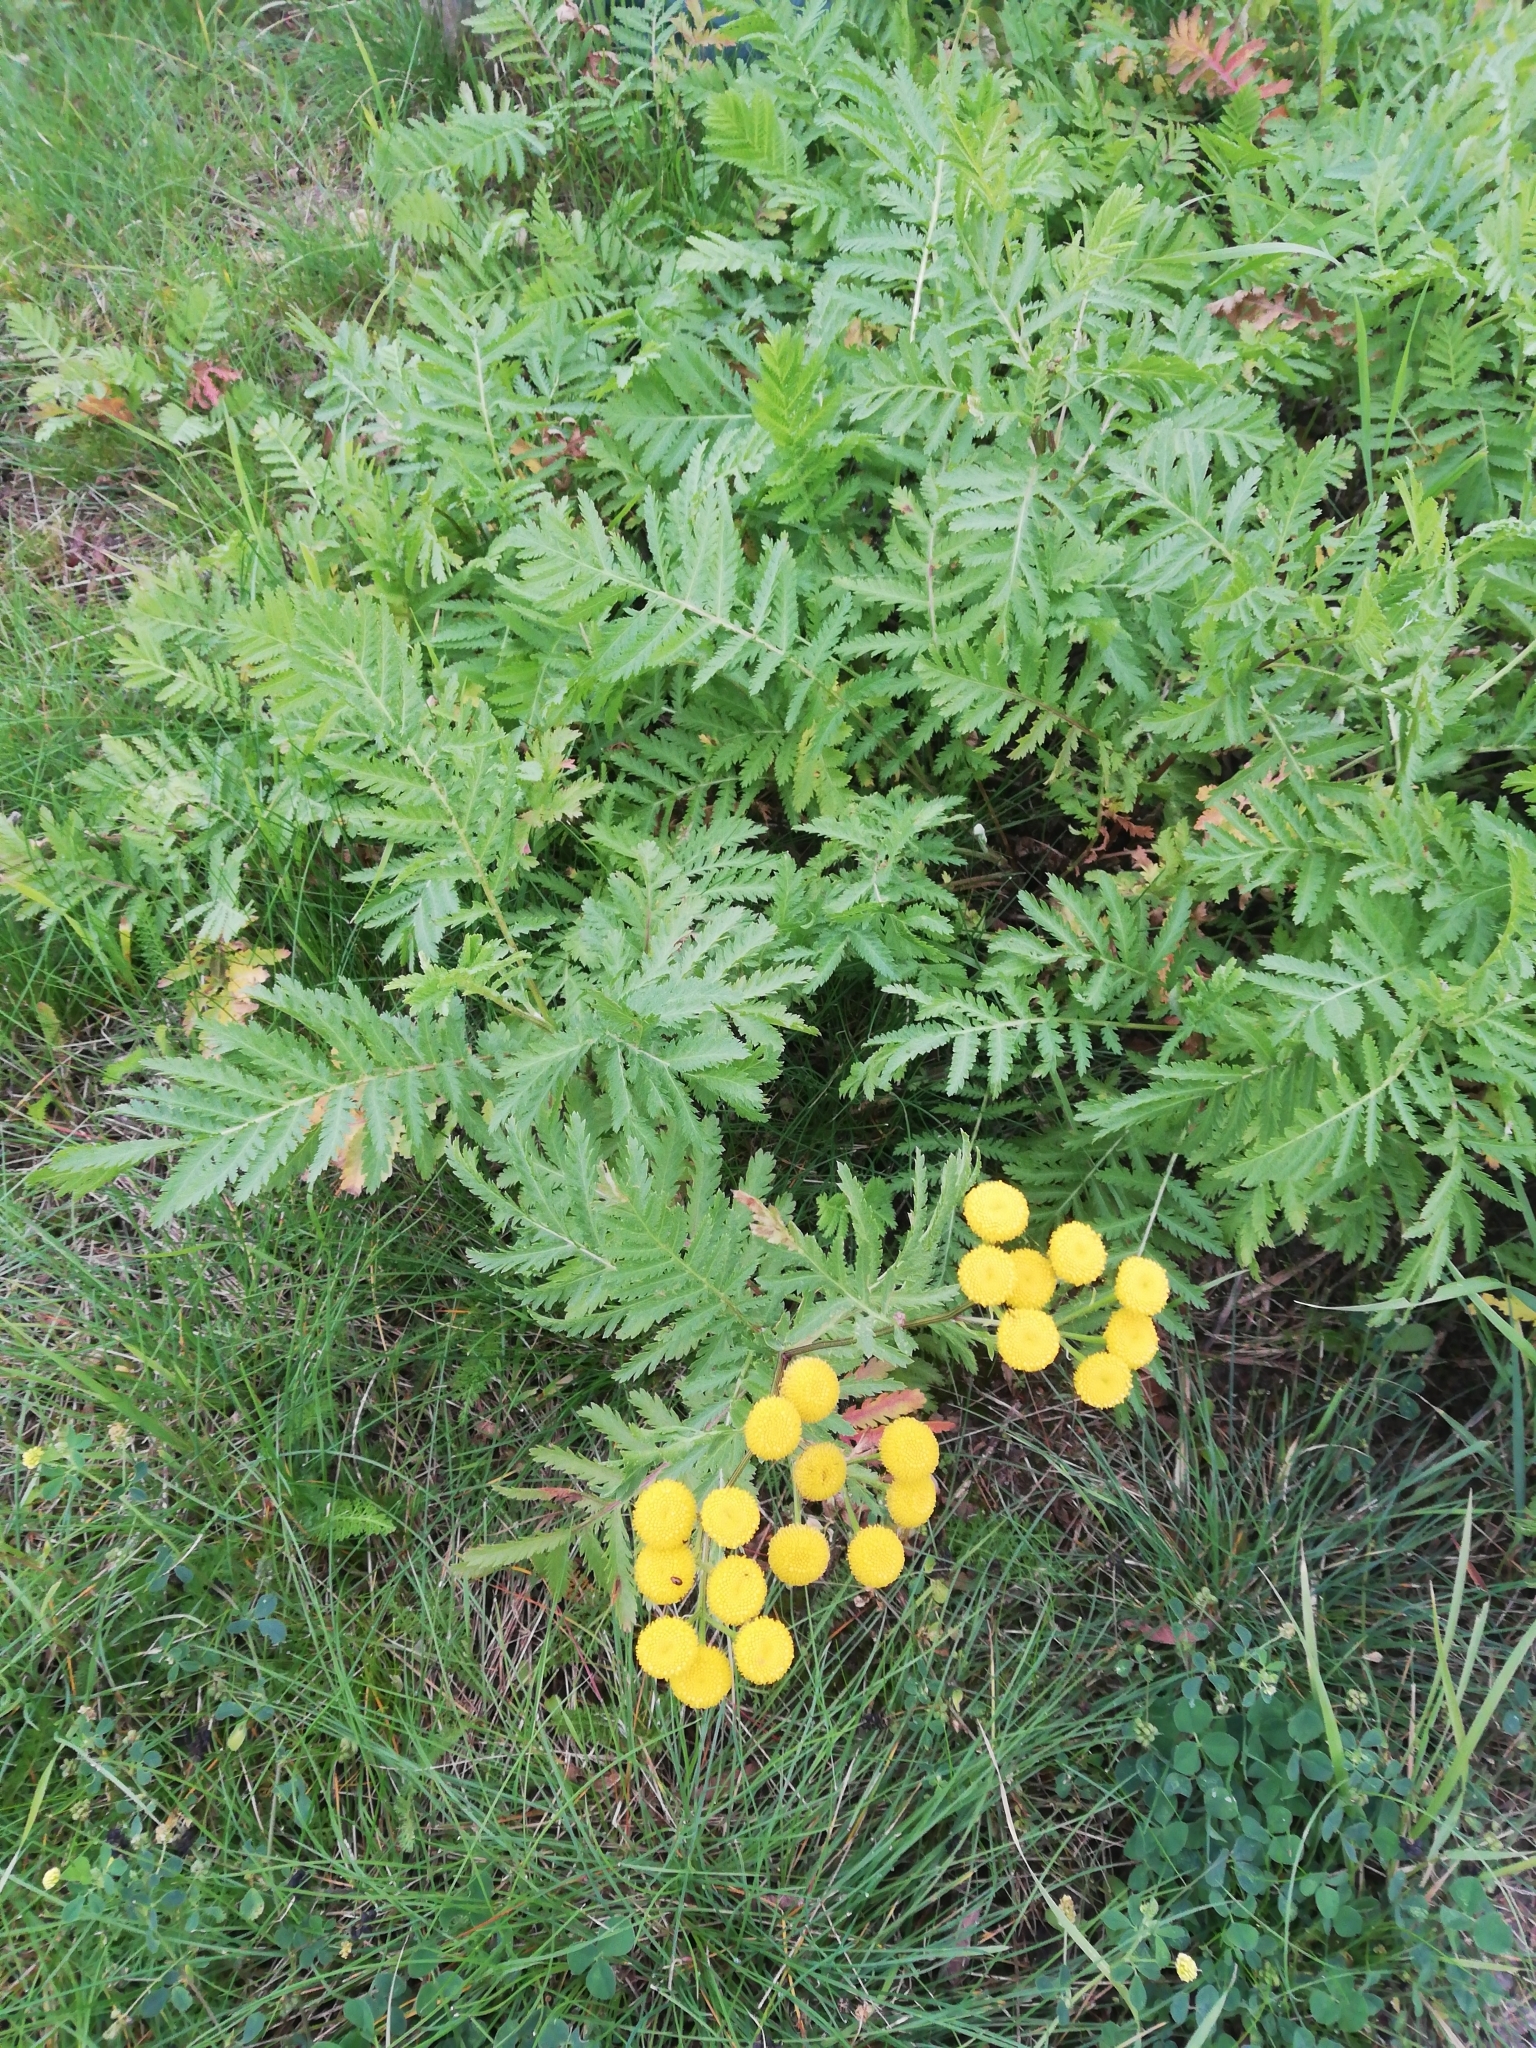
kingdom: Plantae
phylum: Tracheophyta
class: Magnoliopsida
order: Asterales
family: Asteraceae
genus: Tanacetum
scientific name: Tanacetum vulgare
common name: Common tansy
